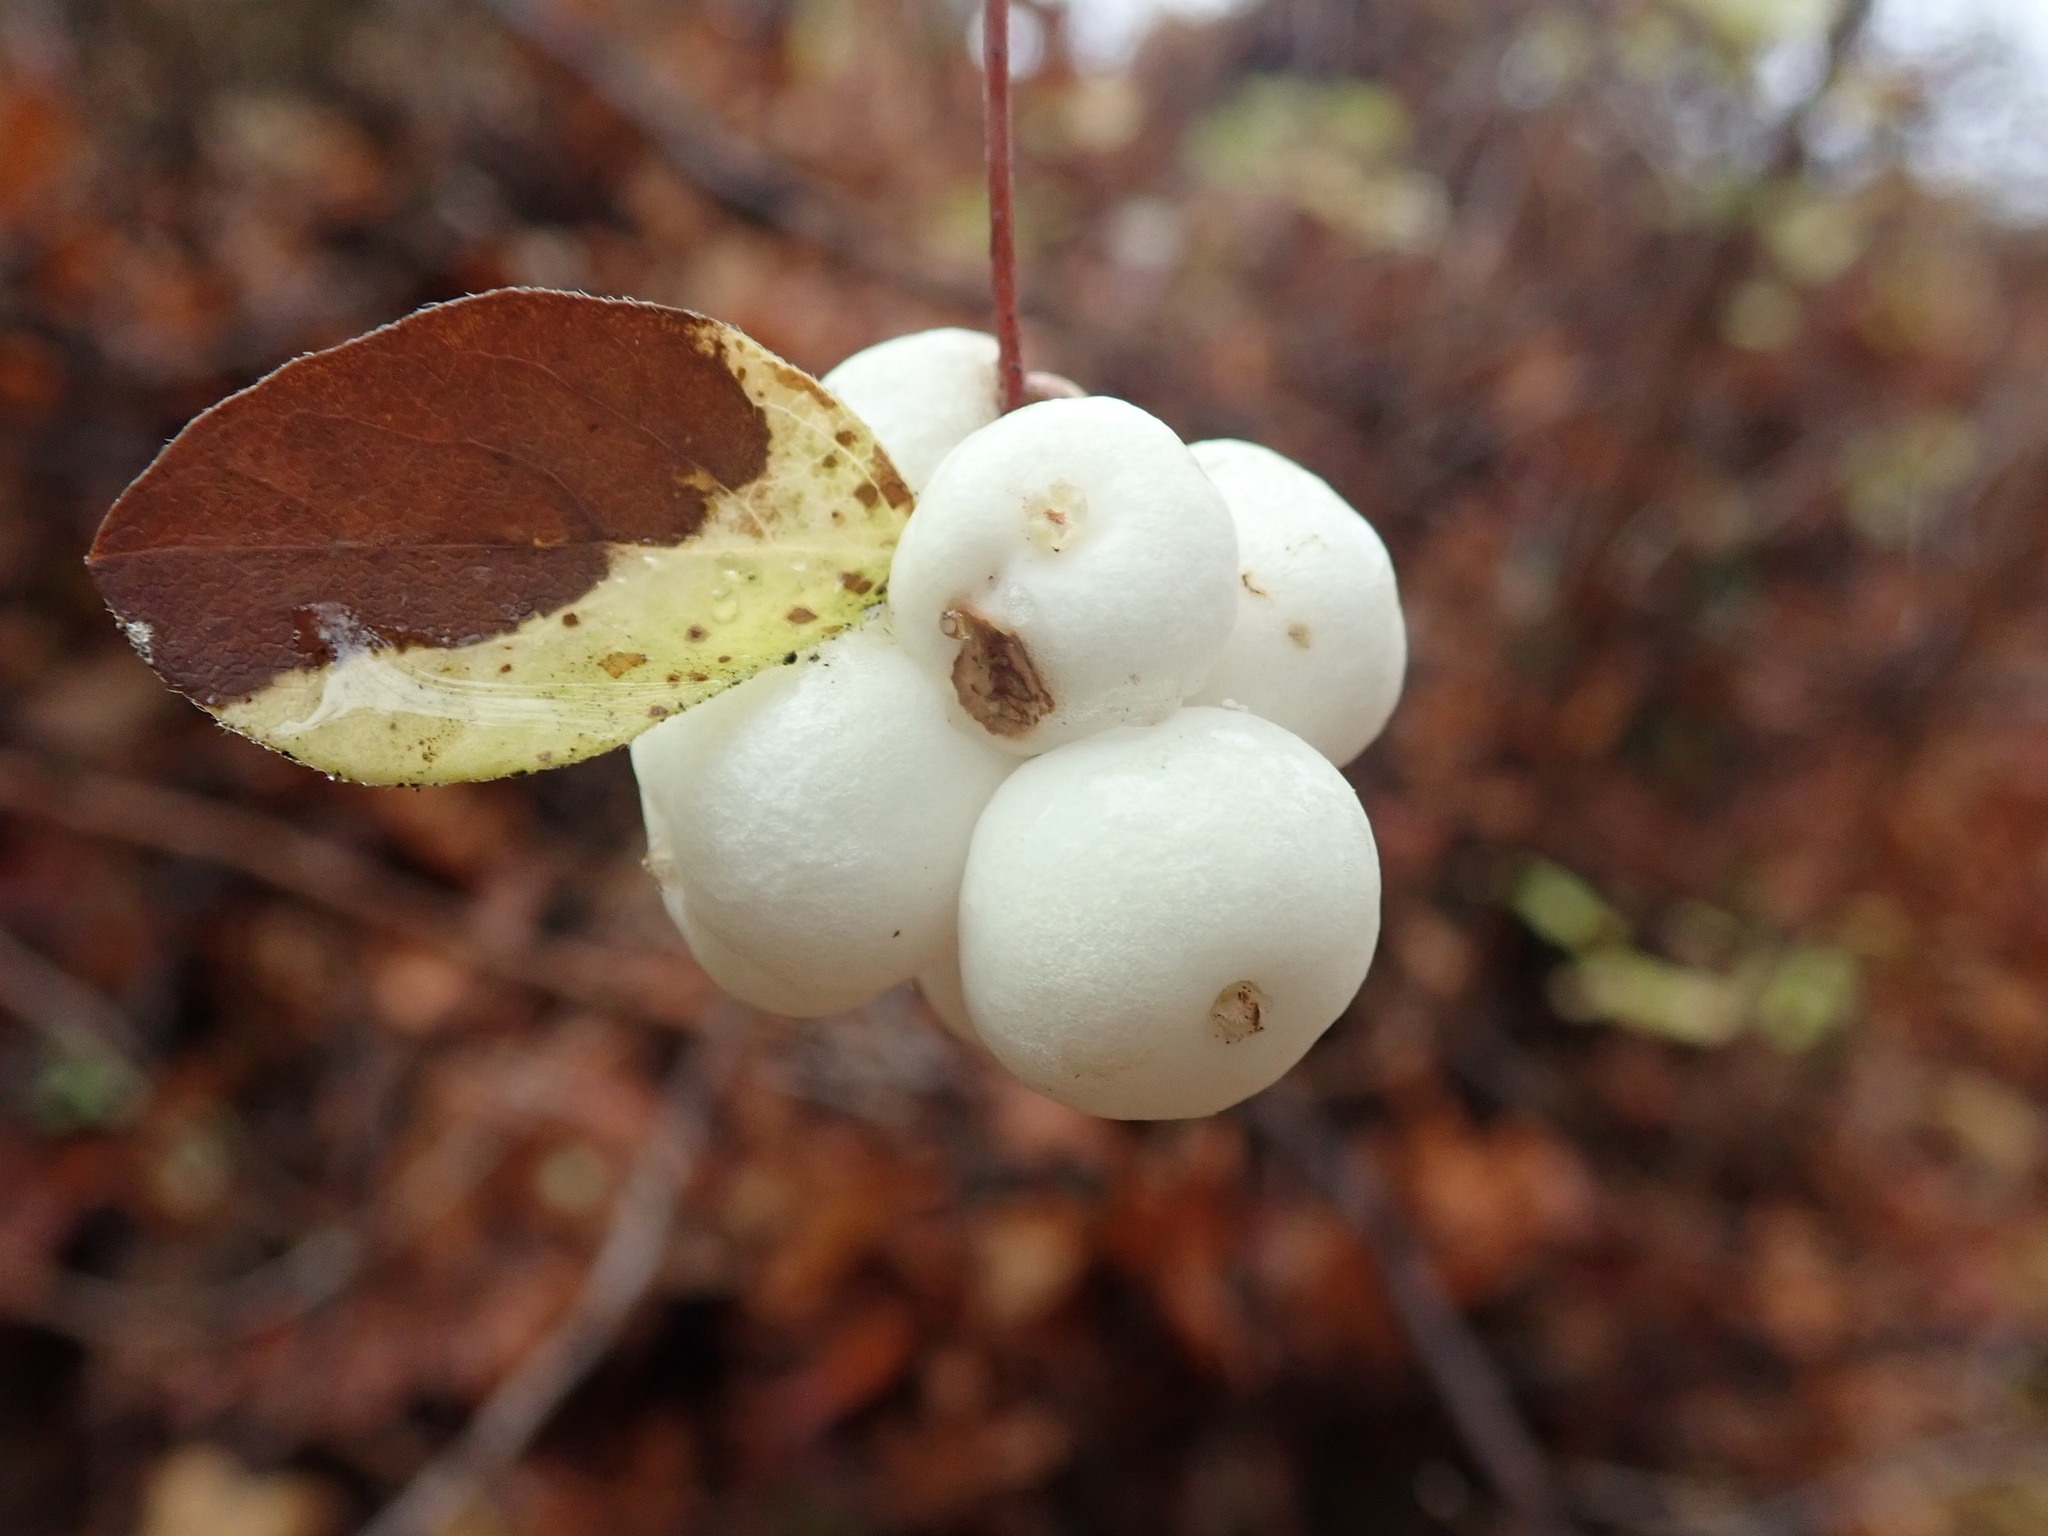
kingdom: Plantae
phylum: Tracheophyta
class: Magnoliopsida
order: Dipsacales
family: Caprifoliaceae
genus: Symphoricarpos
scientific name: Symphoricarpos albus
